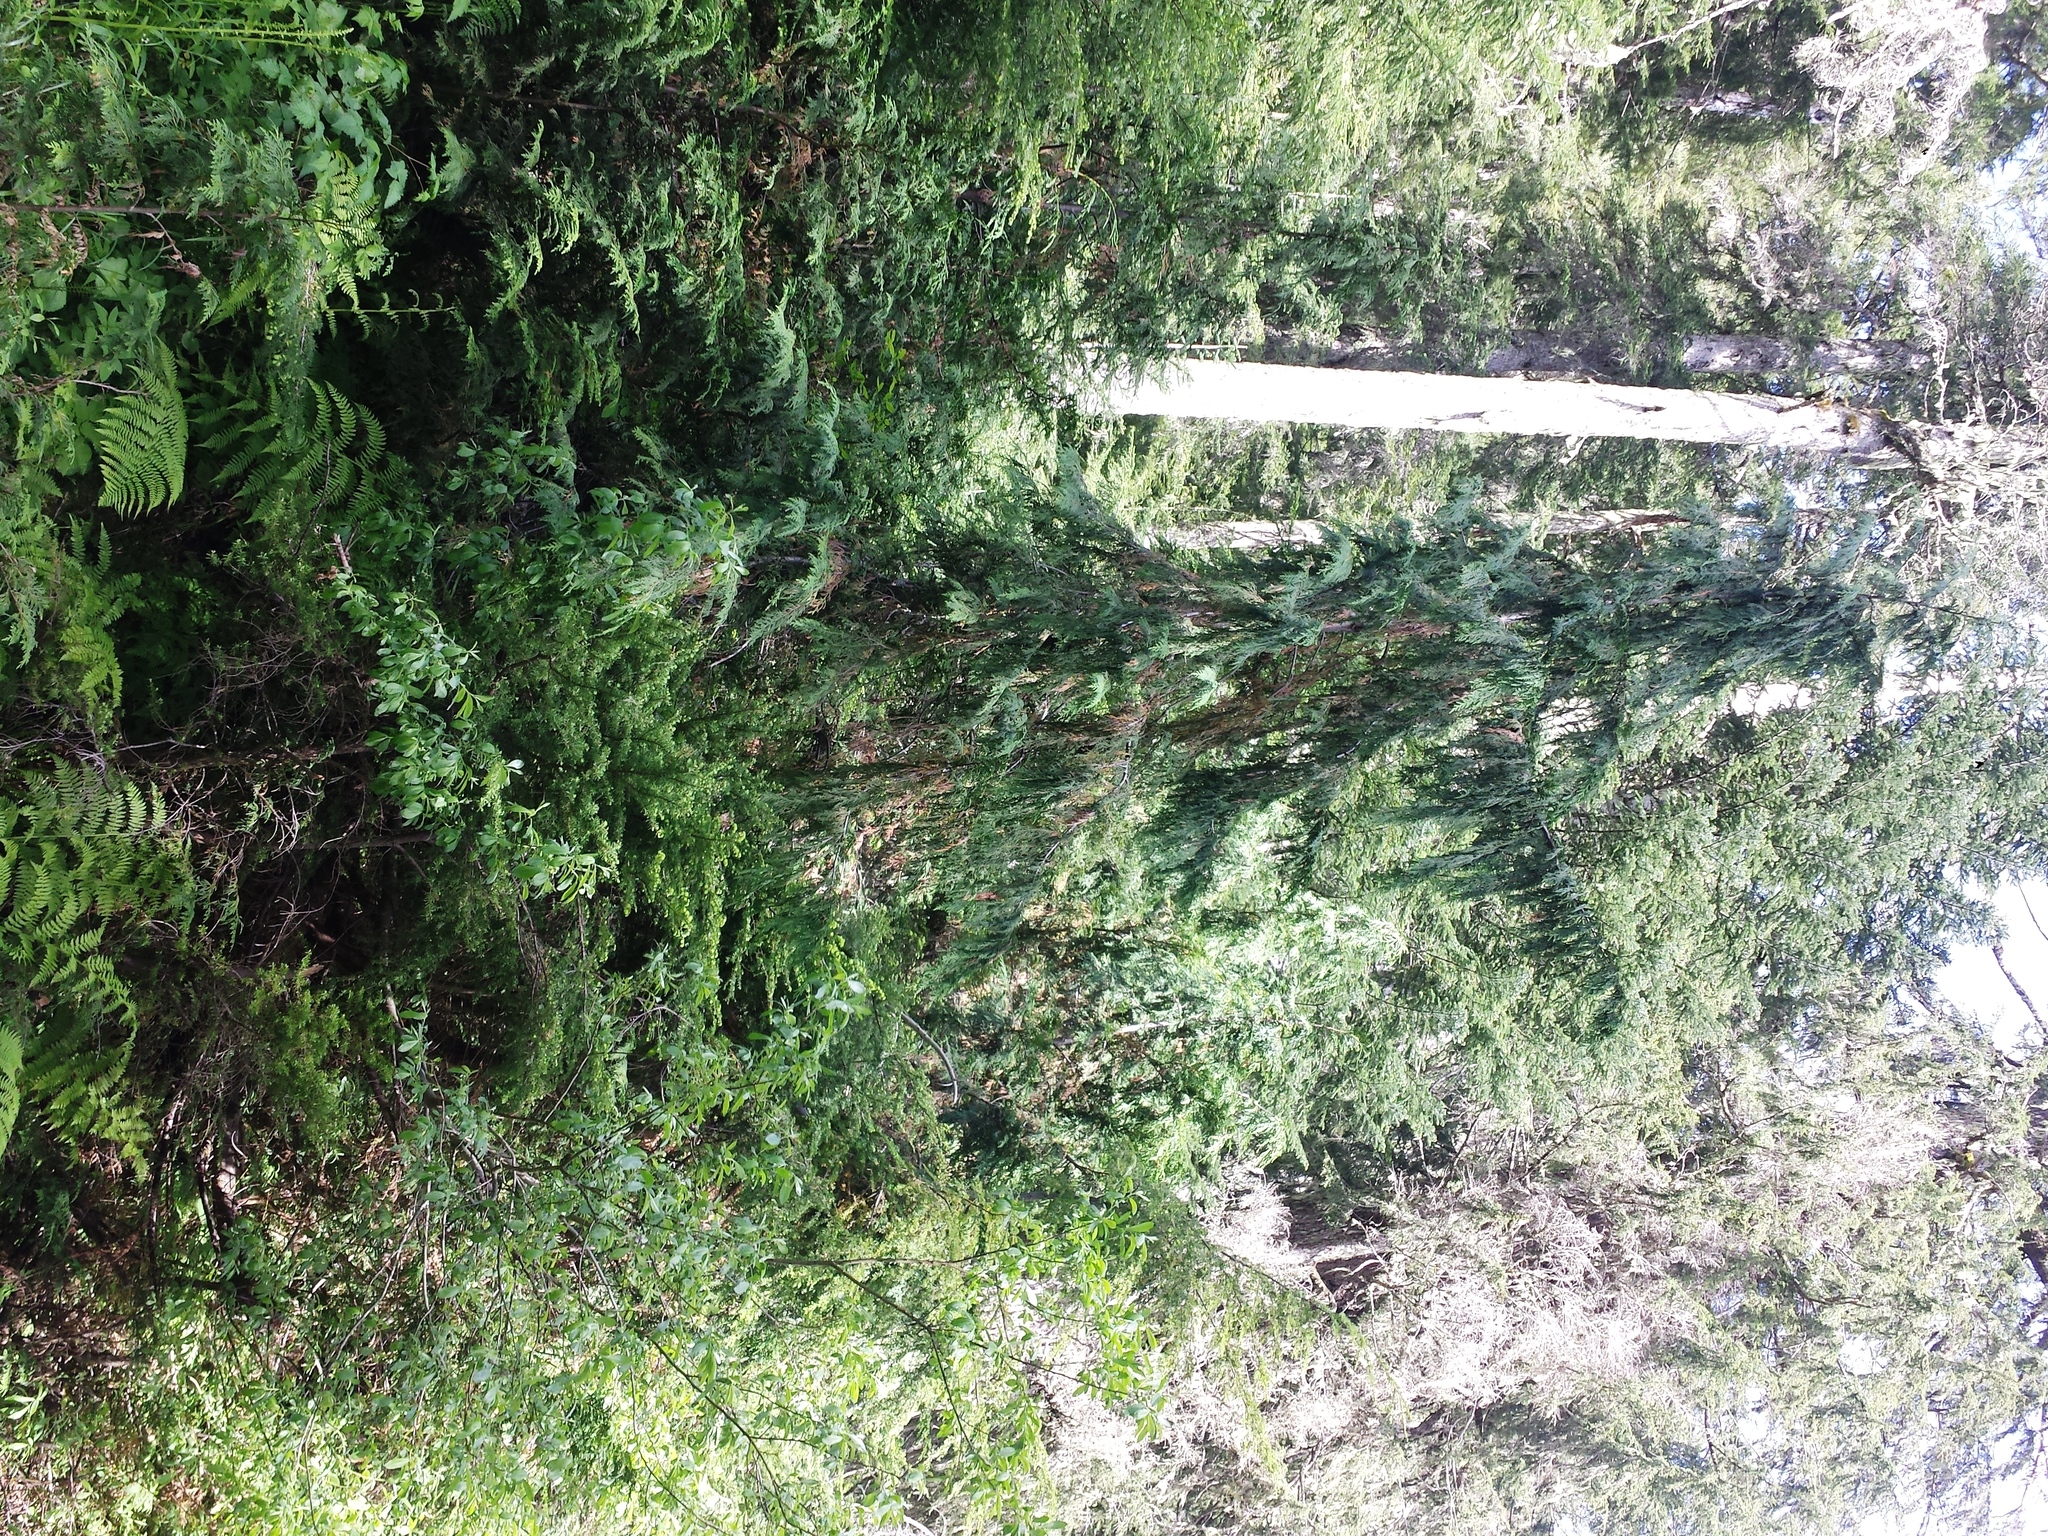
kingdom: Plantae
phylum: Tracheophyta
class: Pinopsida
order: Pinales
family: Cupressaceae
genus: Xanthocyparis
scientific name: Xanthocyparis nootkatensis
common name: Nootka cypress
